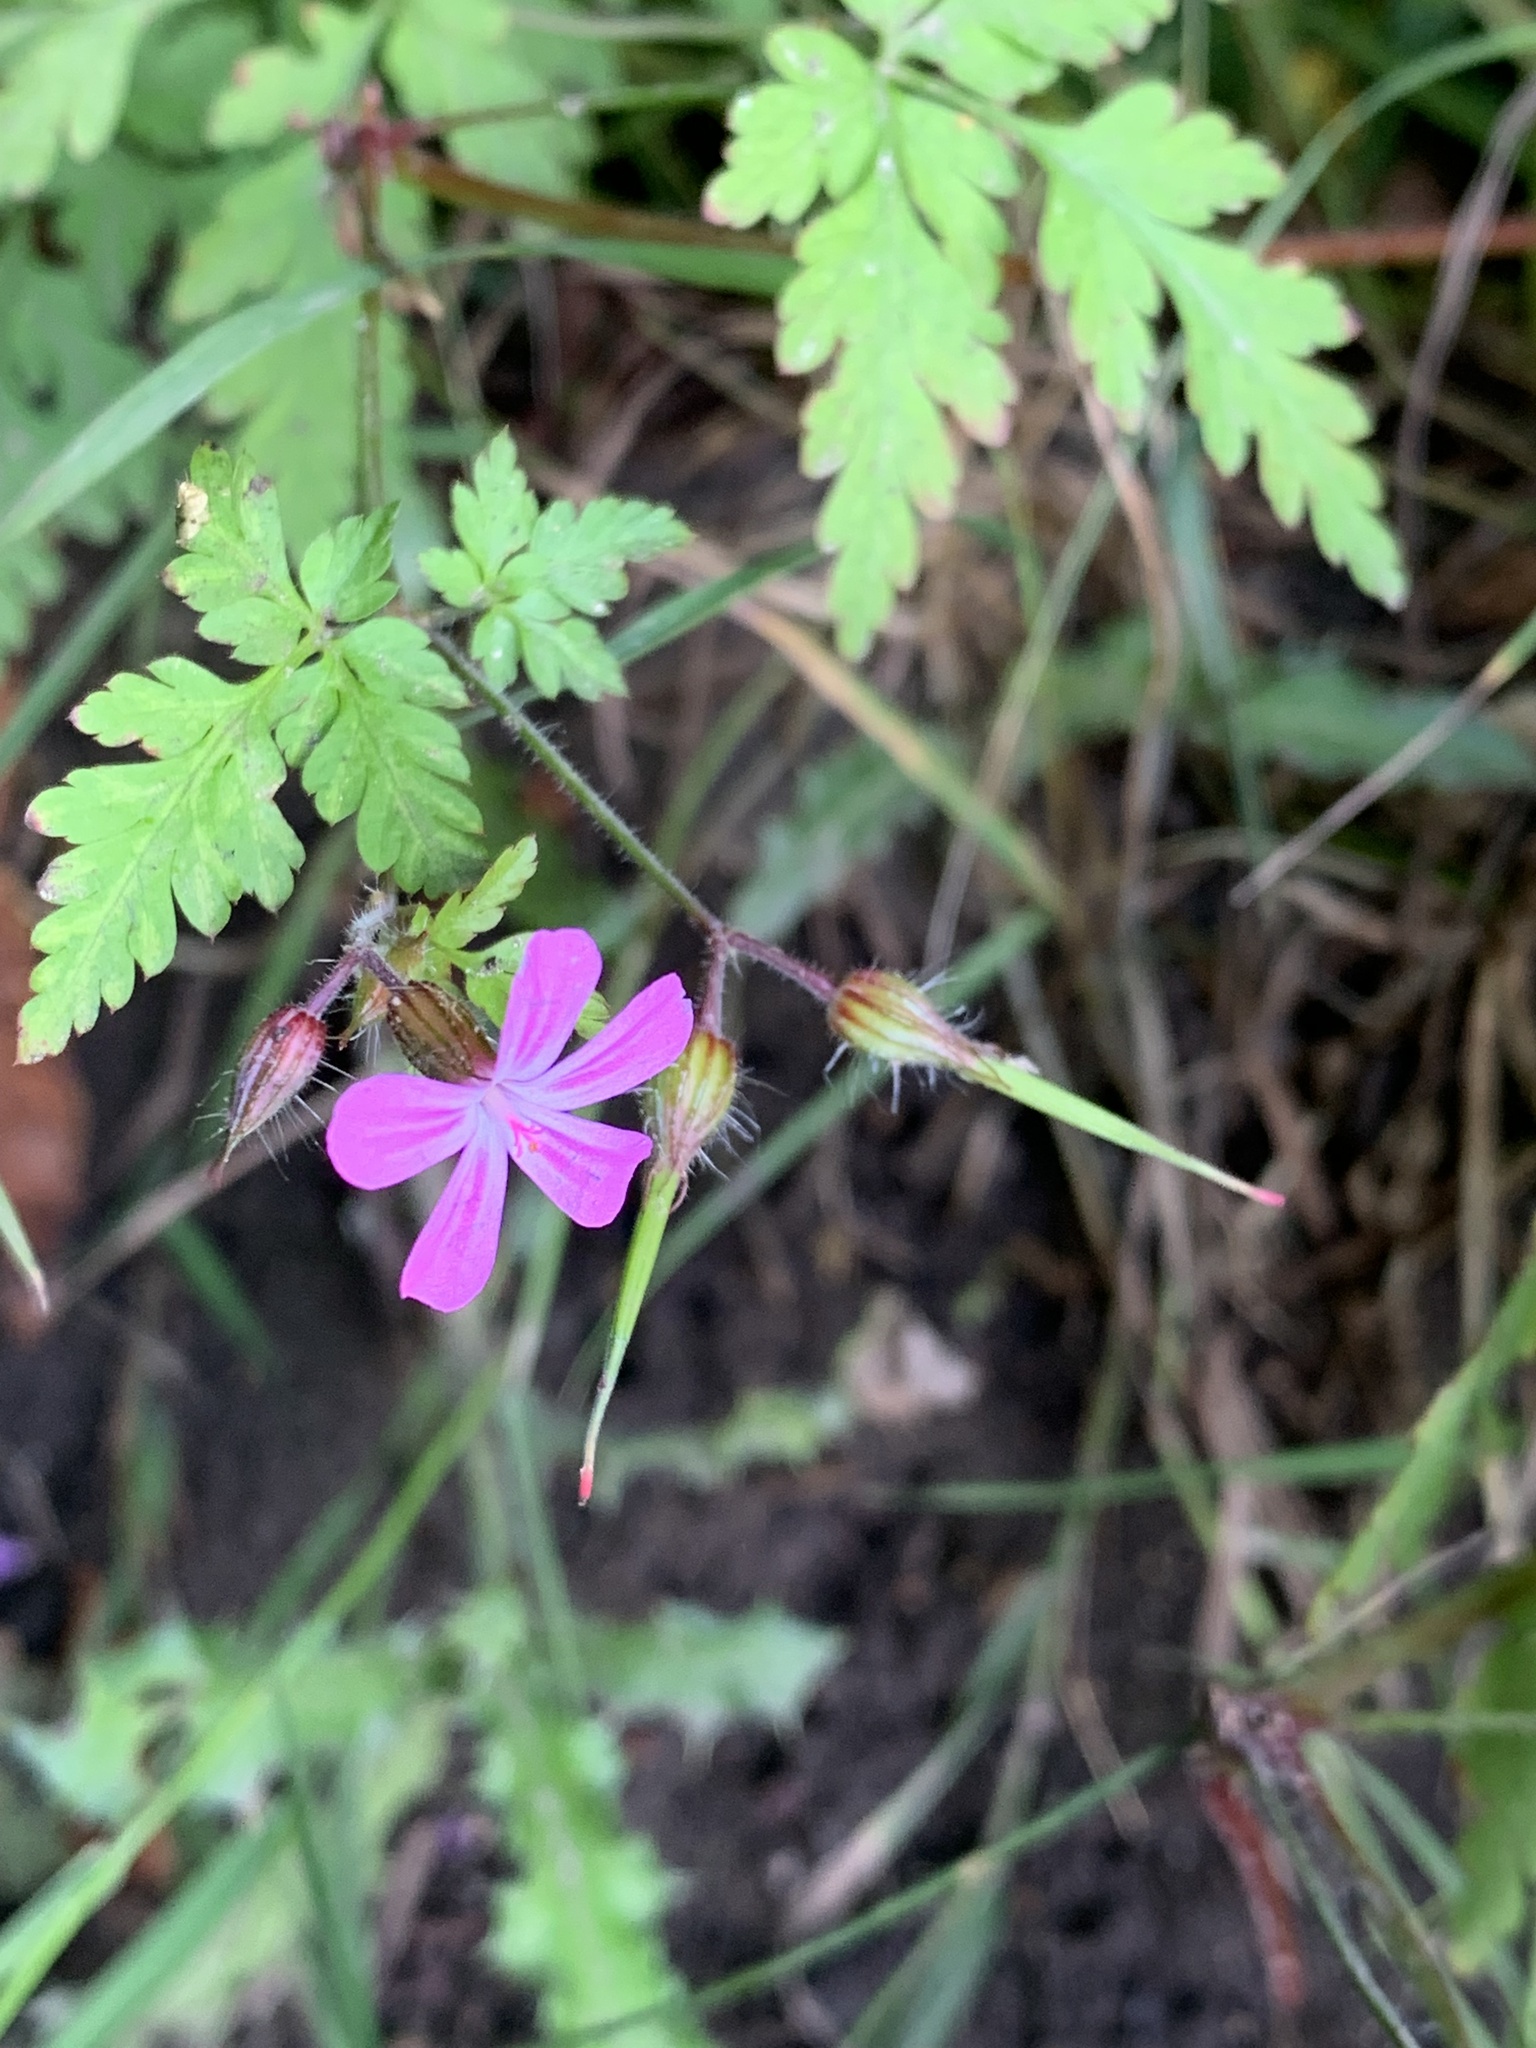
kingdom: Plantae
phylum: Tracheophyta
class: Magnoliopsida
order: Geraniales
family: Geraniaceae
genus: Geranium
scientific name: Geranium robertianum
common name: Herb-robert
